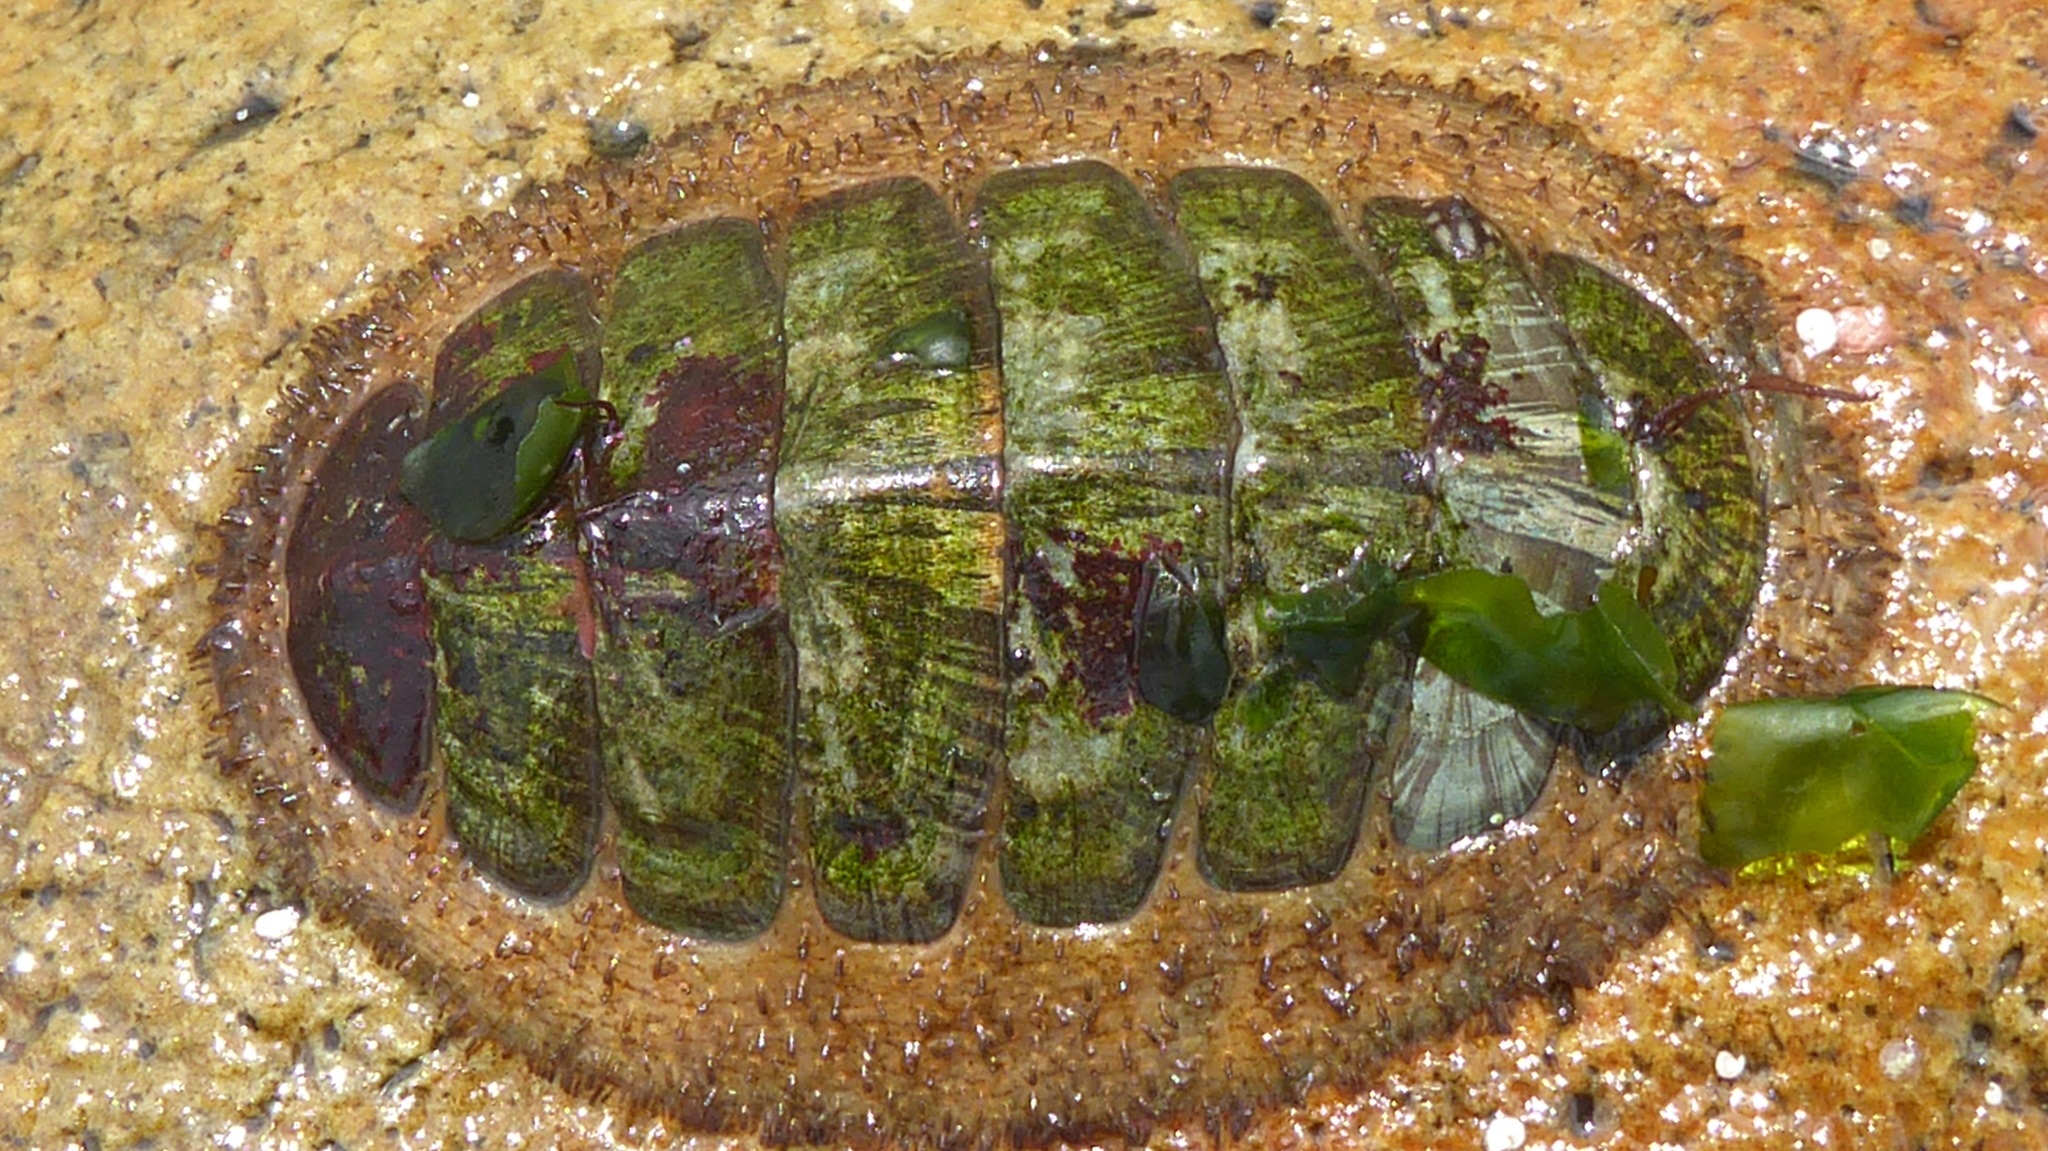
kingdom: Animalia
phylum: Mollusca
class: Polyplacophora
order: Chitonida
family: Mopaliidae
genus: Mopalia
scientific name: Mopalia lignosa
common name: Woody chiton
